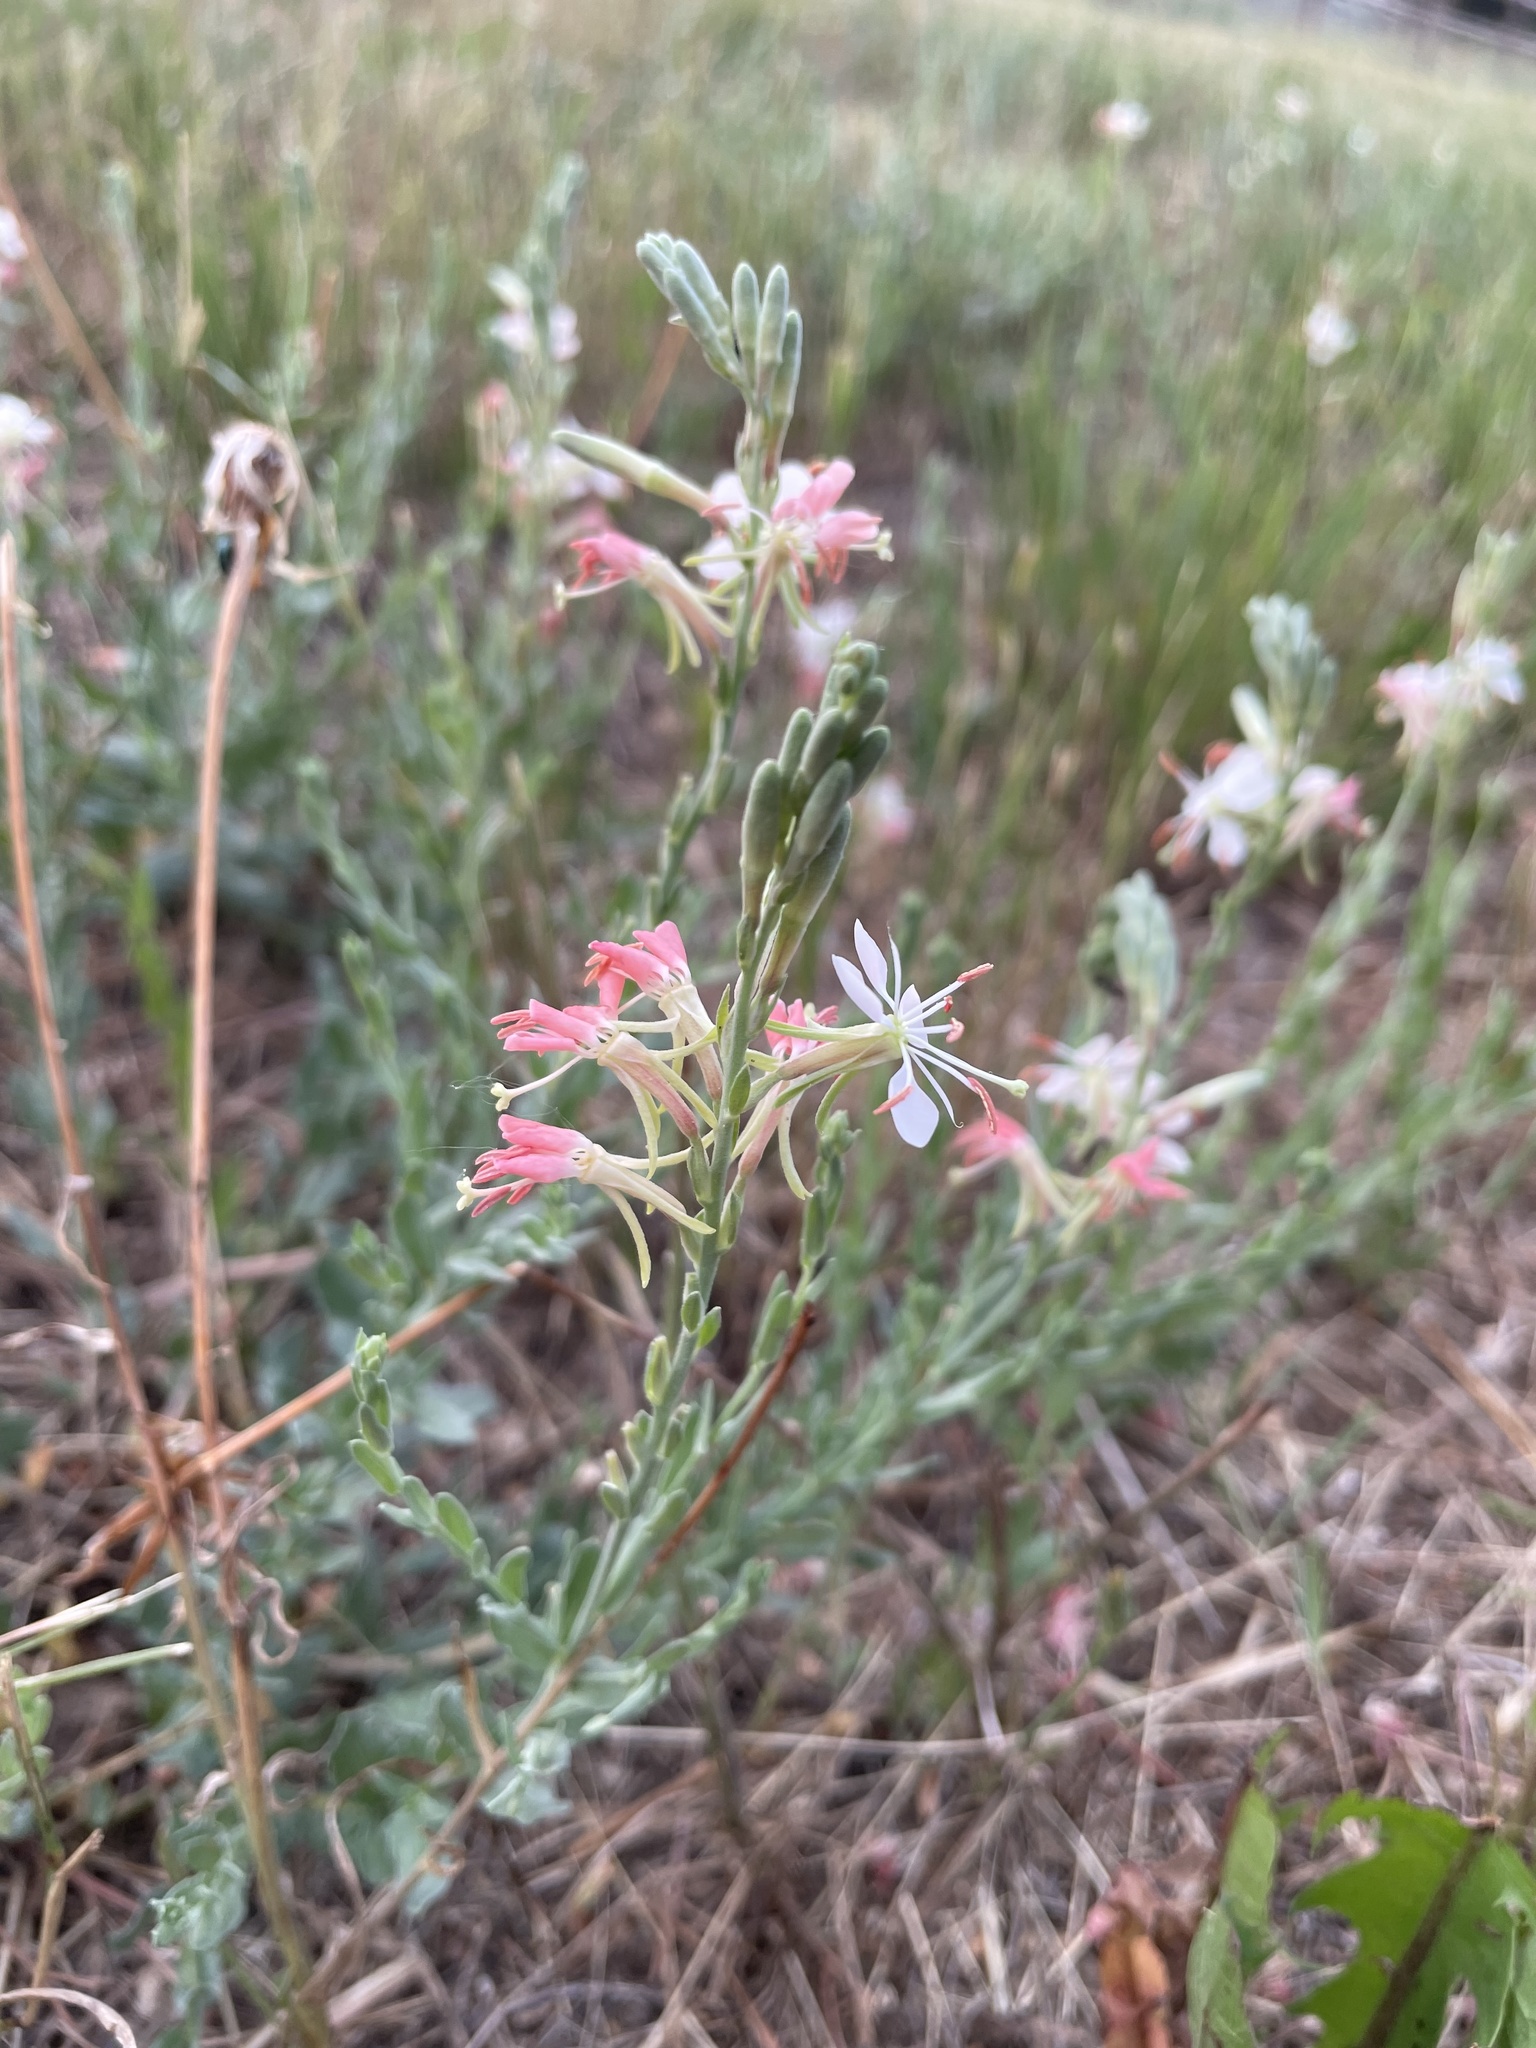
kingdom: Plantae
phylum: Tracheophyta
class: Magnoliopsida
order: Myrtales
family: Onagraceae
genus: Oenothera
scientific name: Oenothera suffrutescens
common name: Scarlet beeblossom
